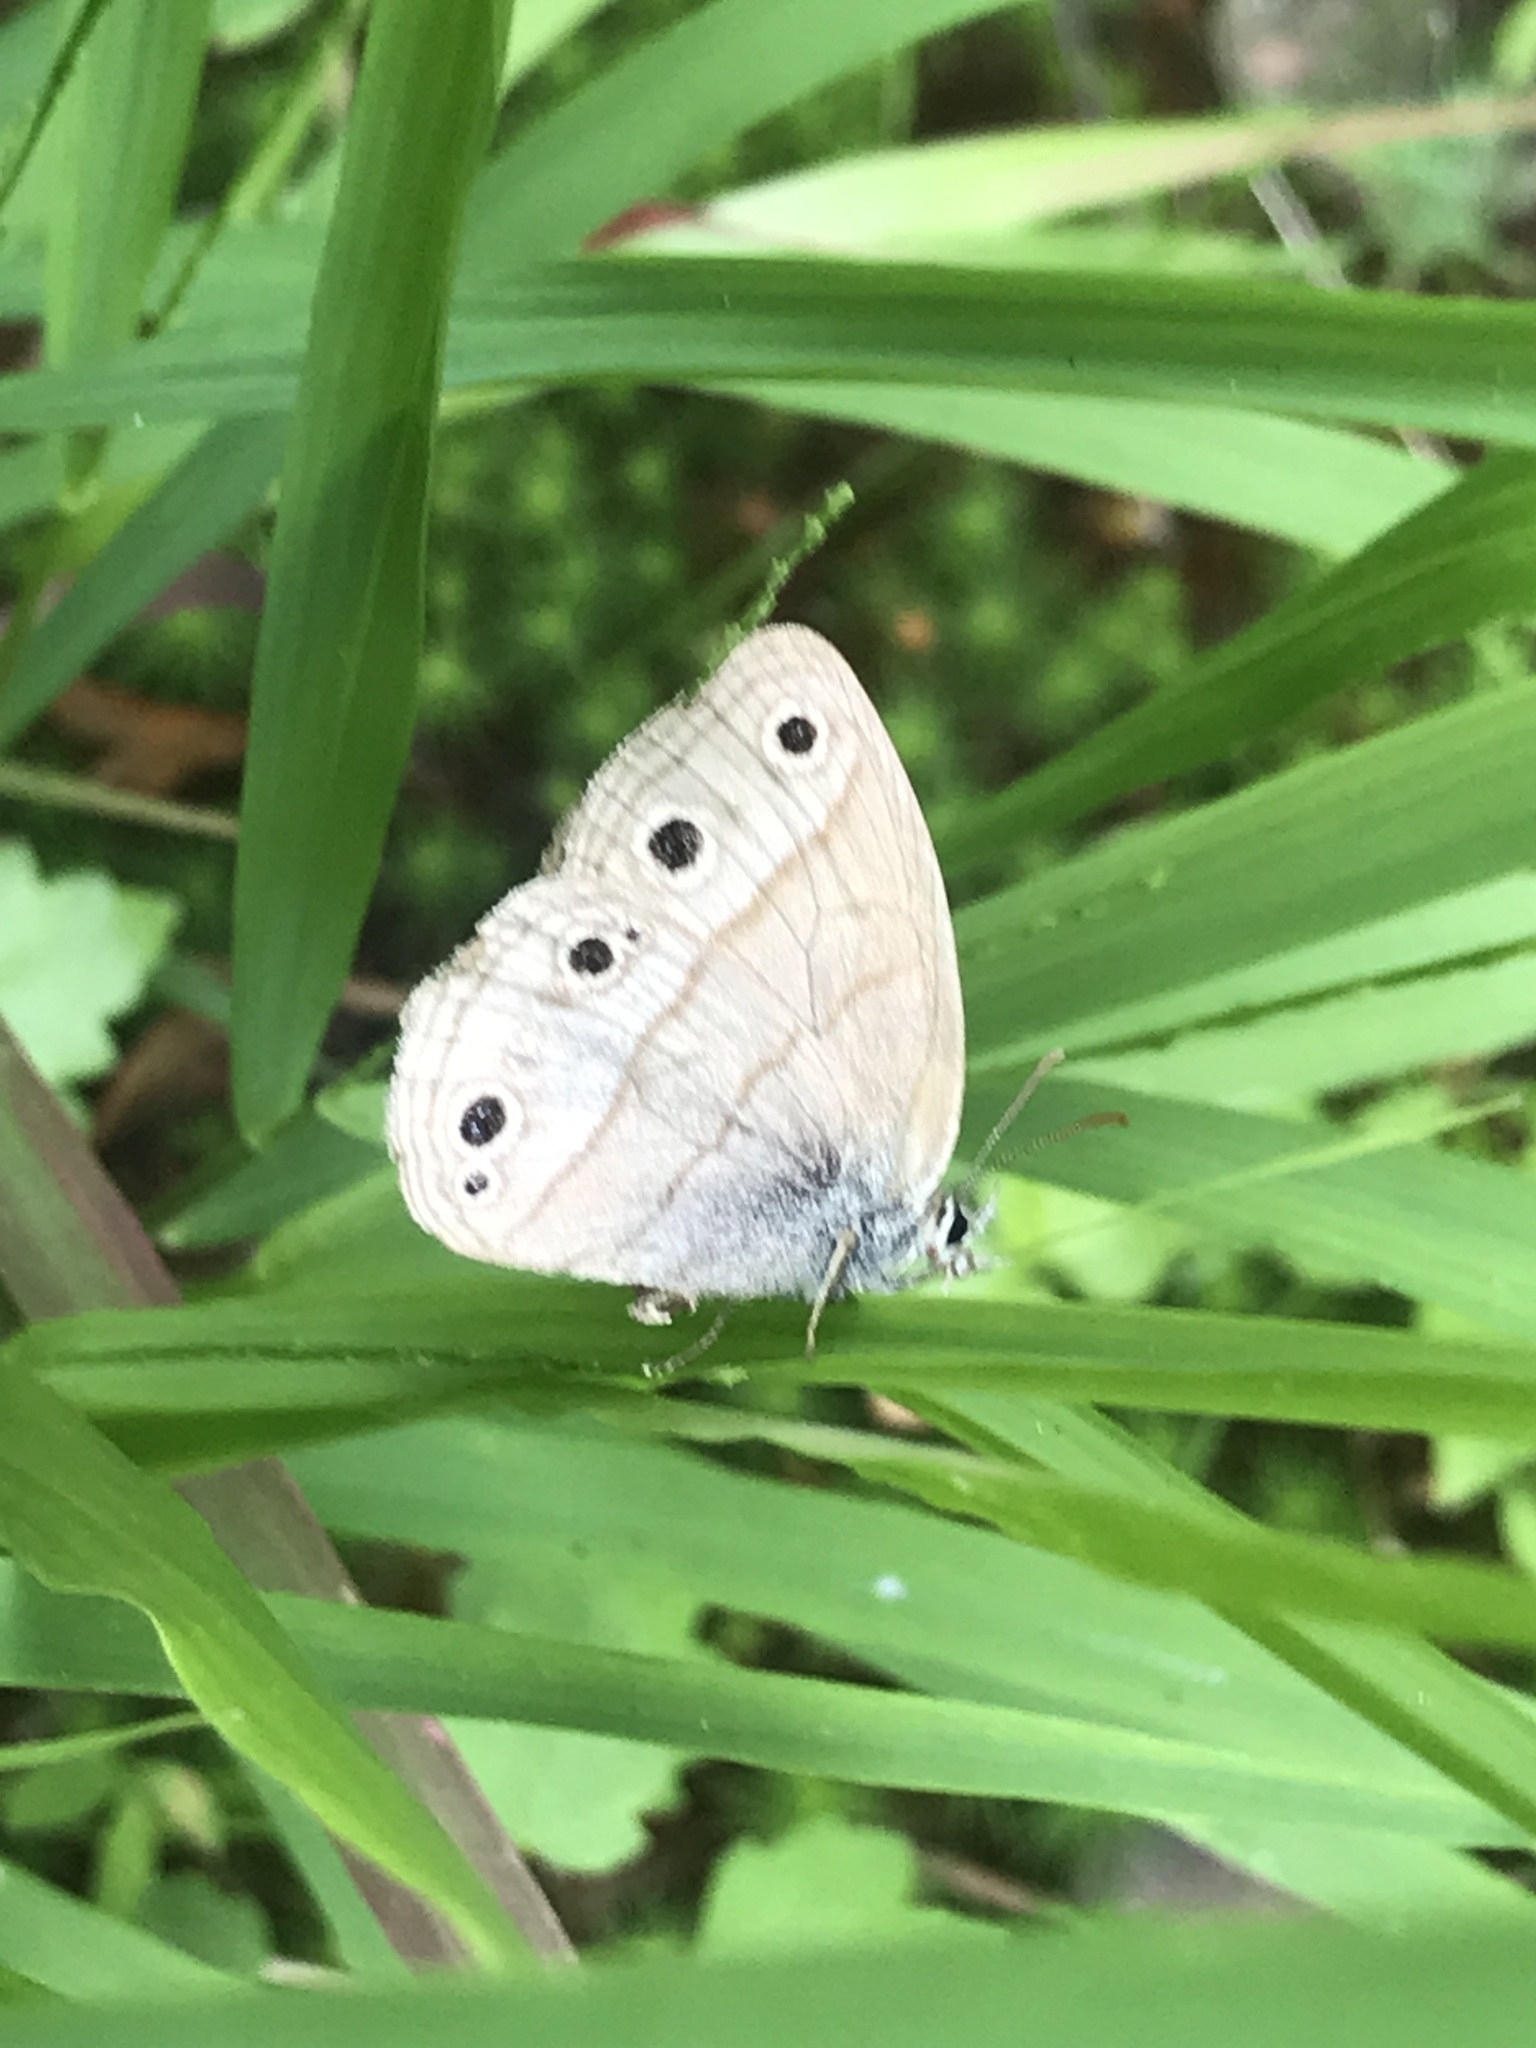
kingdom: Animalia
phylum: Arthropoda
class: Insecta
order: Lepidoptera
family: Nymphalidae
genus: Euptychia
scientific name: Euptychia cymela
